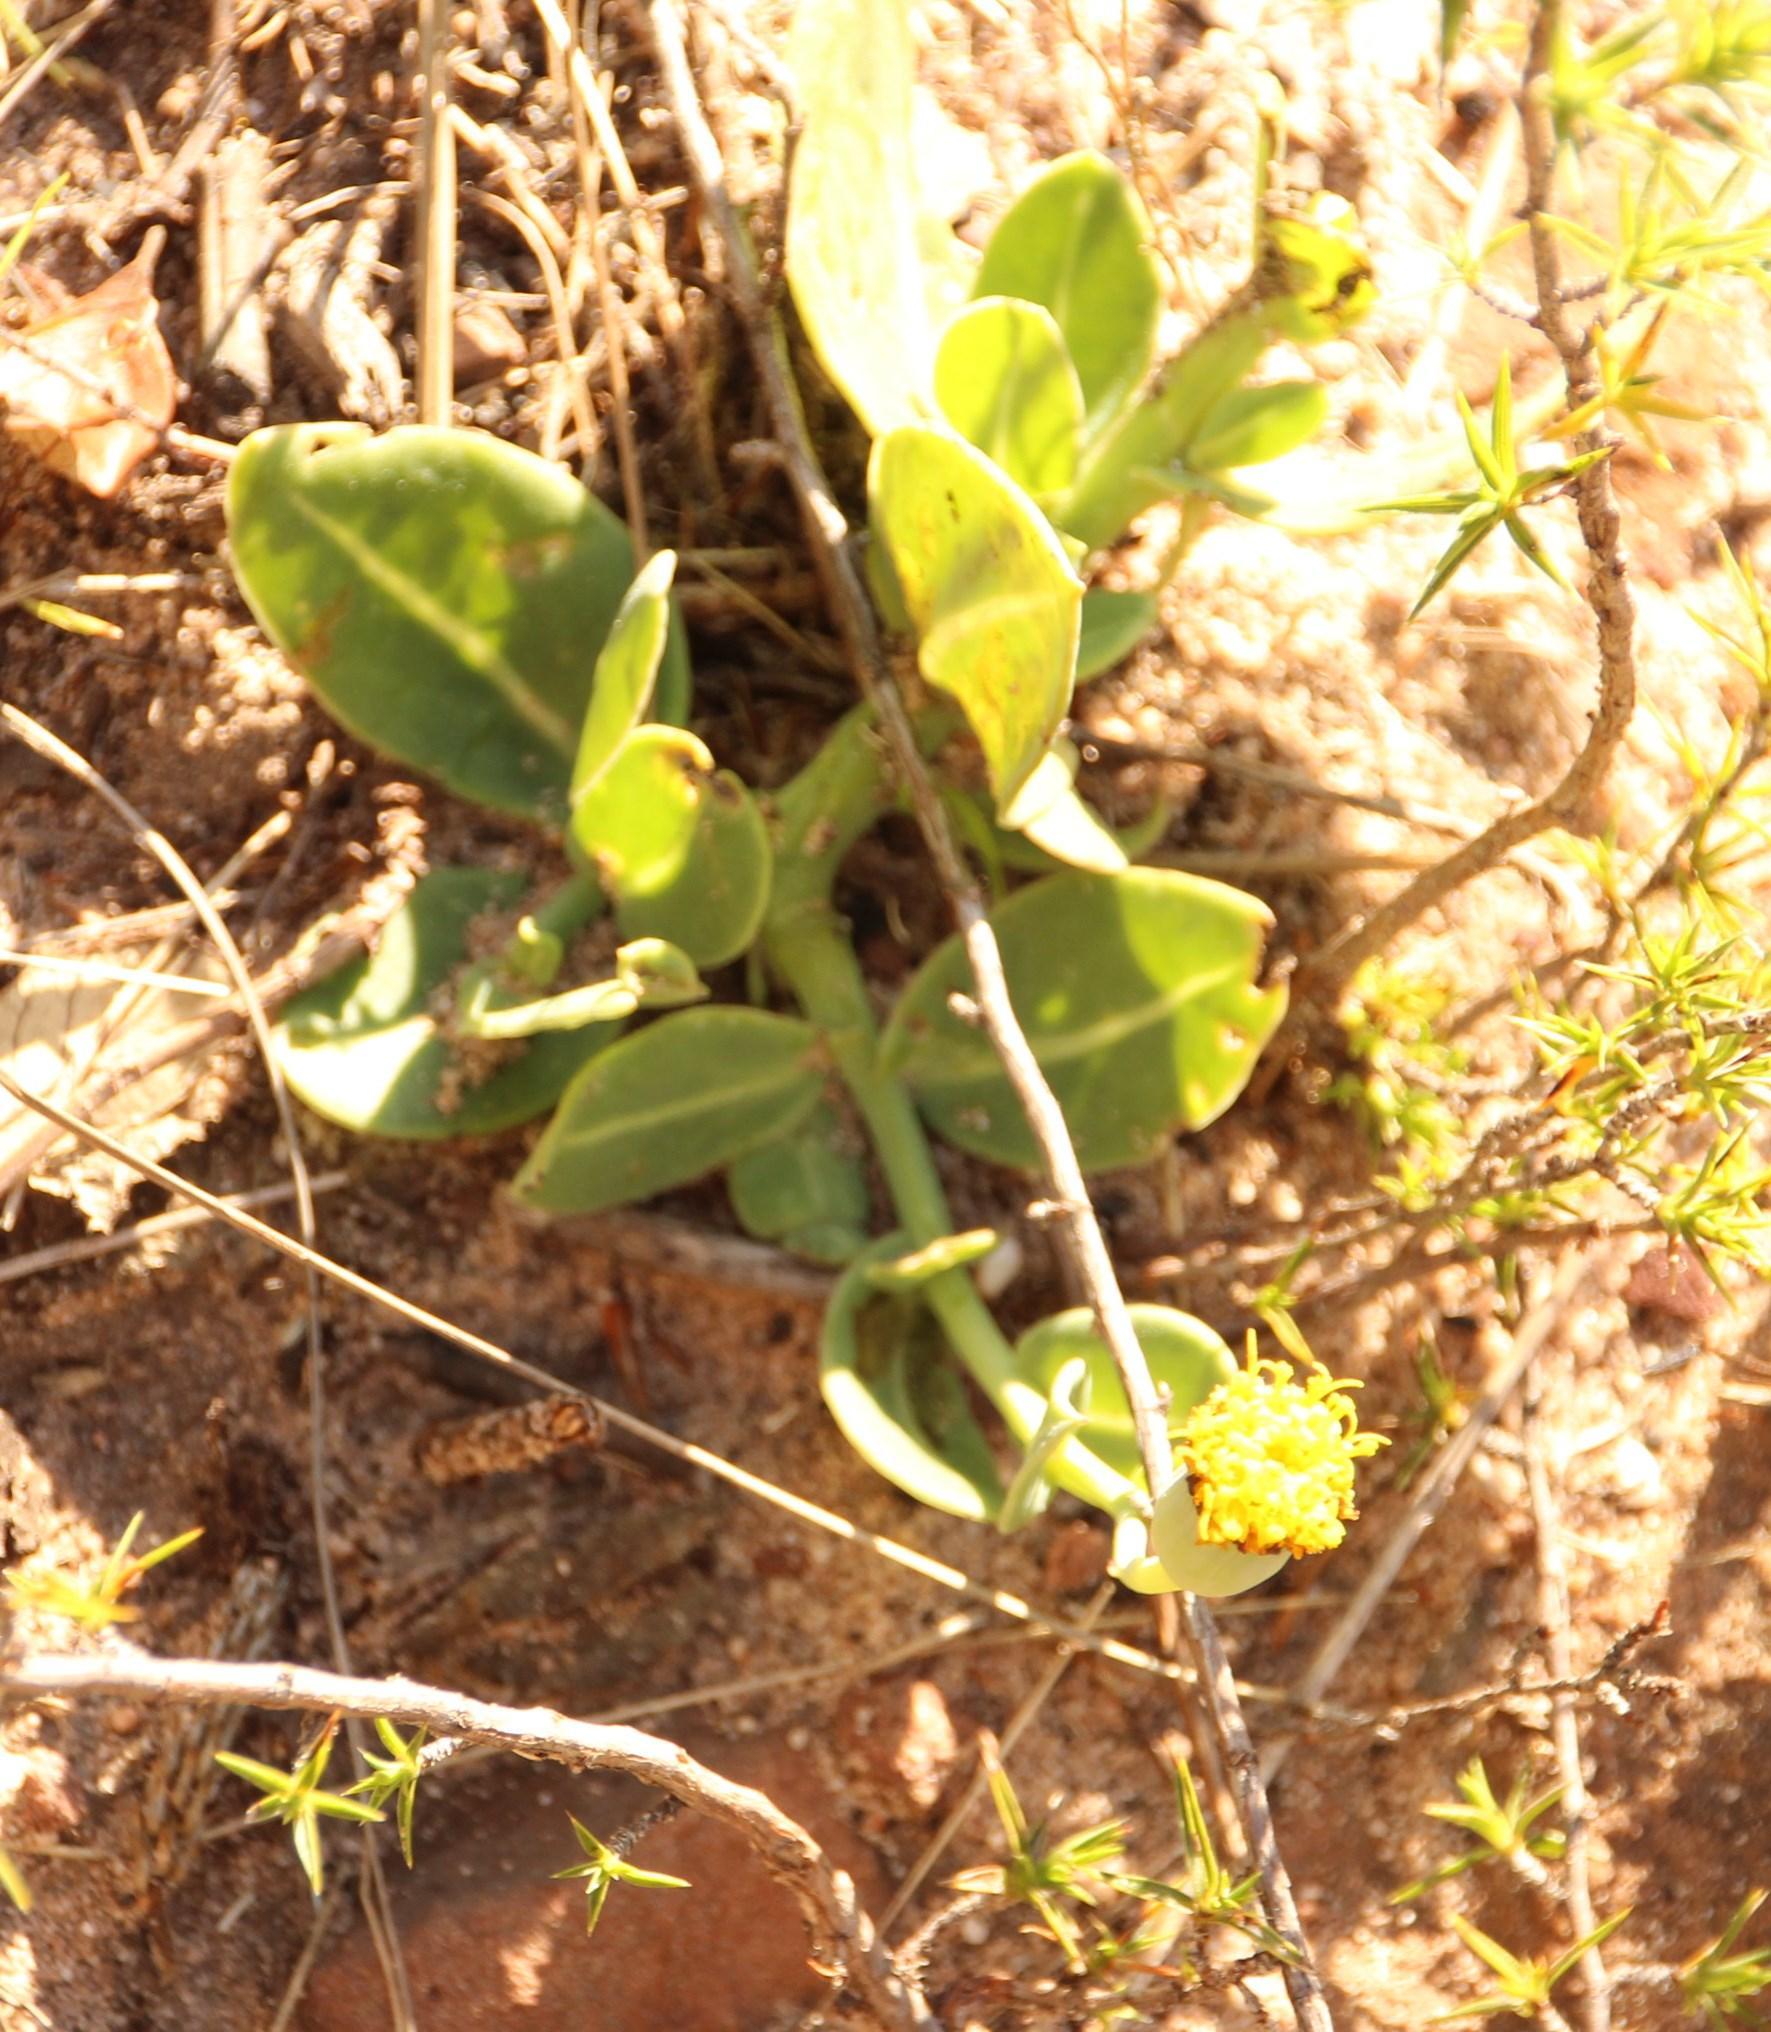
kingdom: Plantae
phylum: Tracheophyta
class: Magnoliopsida
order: Asterales
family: Asteraceae
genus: Othonna
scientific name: Othonna gymnodiscus
